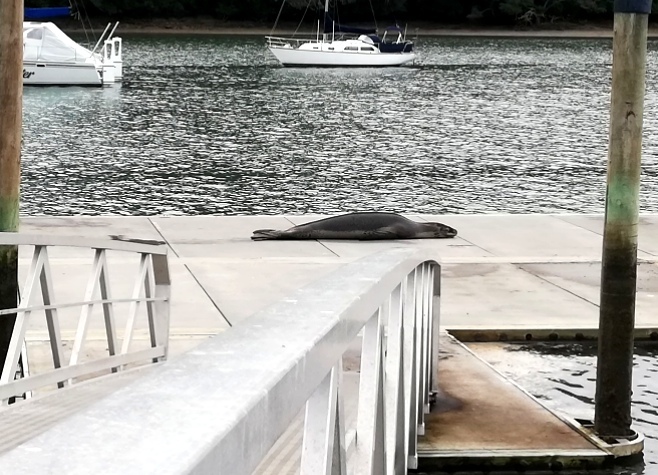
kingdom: Animalia
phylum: Chordata
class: Mammalia
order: Carnivora
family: Phocidae
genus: Hydrurga
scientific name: Hydrurga leptonyx
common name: Leopard seal
